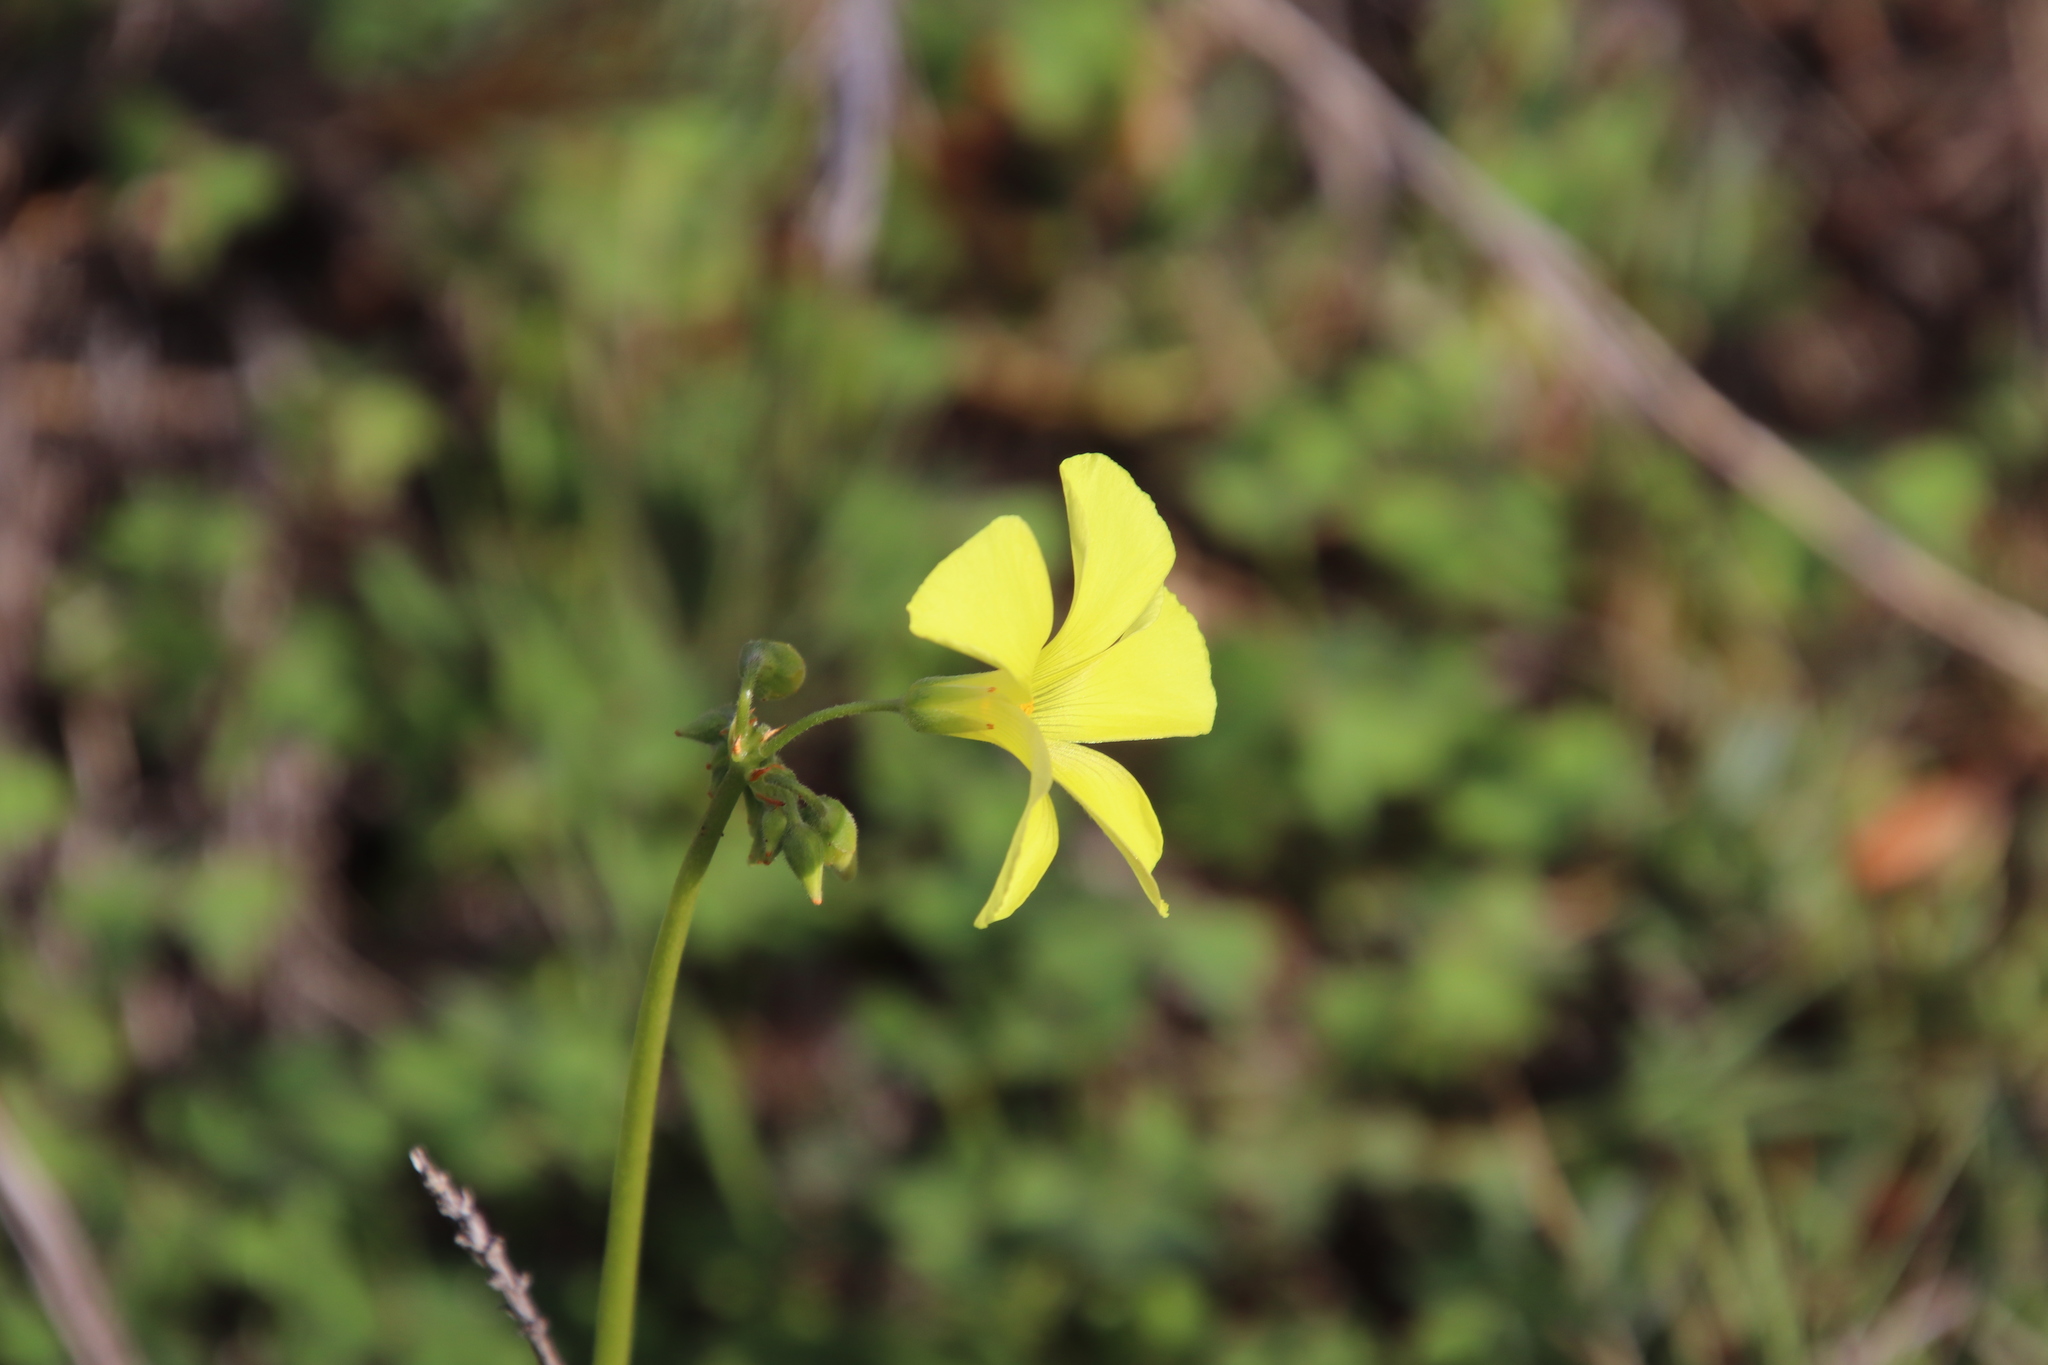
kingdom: Plantae
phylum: Tracheophyta
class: Magnoliopsida
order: Oxalidales
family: Oxalidaceae
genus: Oxalis
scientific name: Oxalis pes-caprae
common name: Bermuda-buttercup
